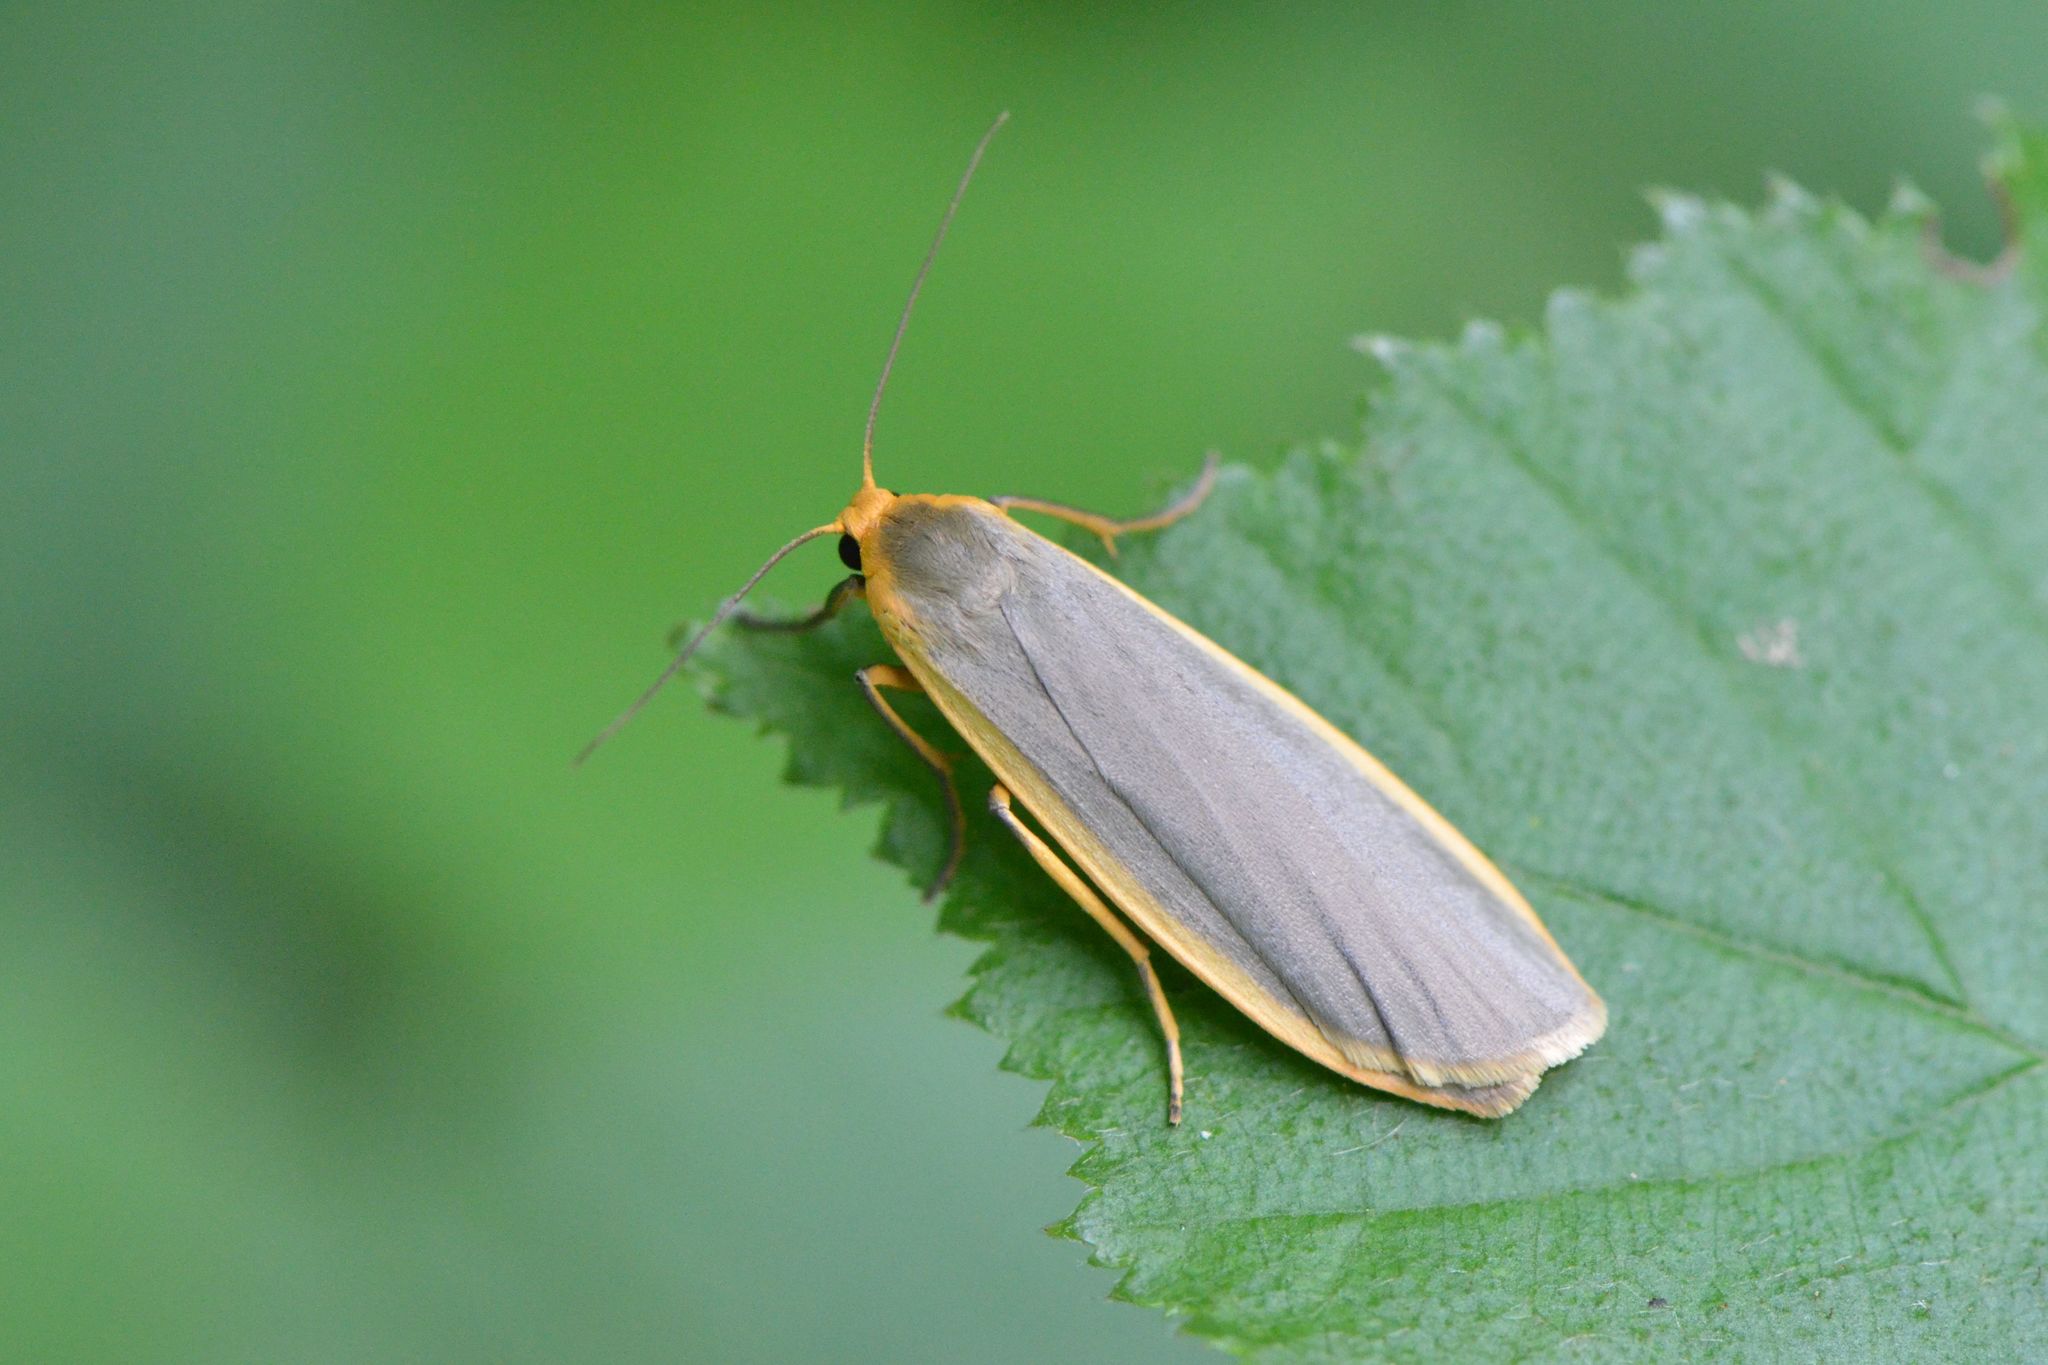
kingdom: Animalia
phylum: Arthropoda
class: Insecta
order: Lepidoptera
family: Erebidae
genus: Nyea
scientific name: Nyea lurideola
